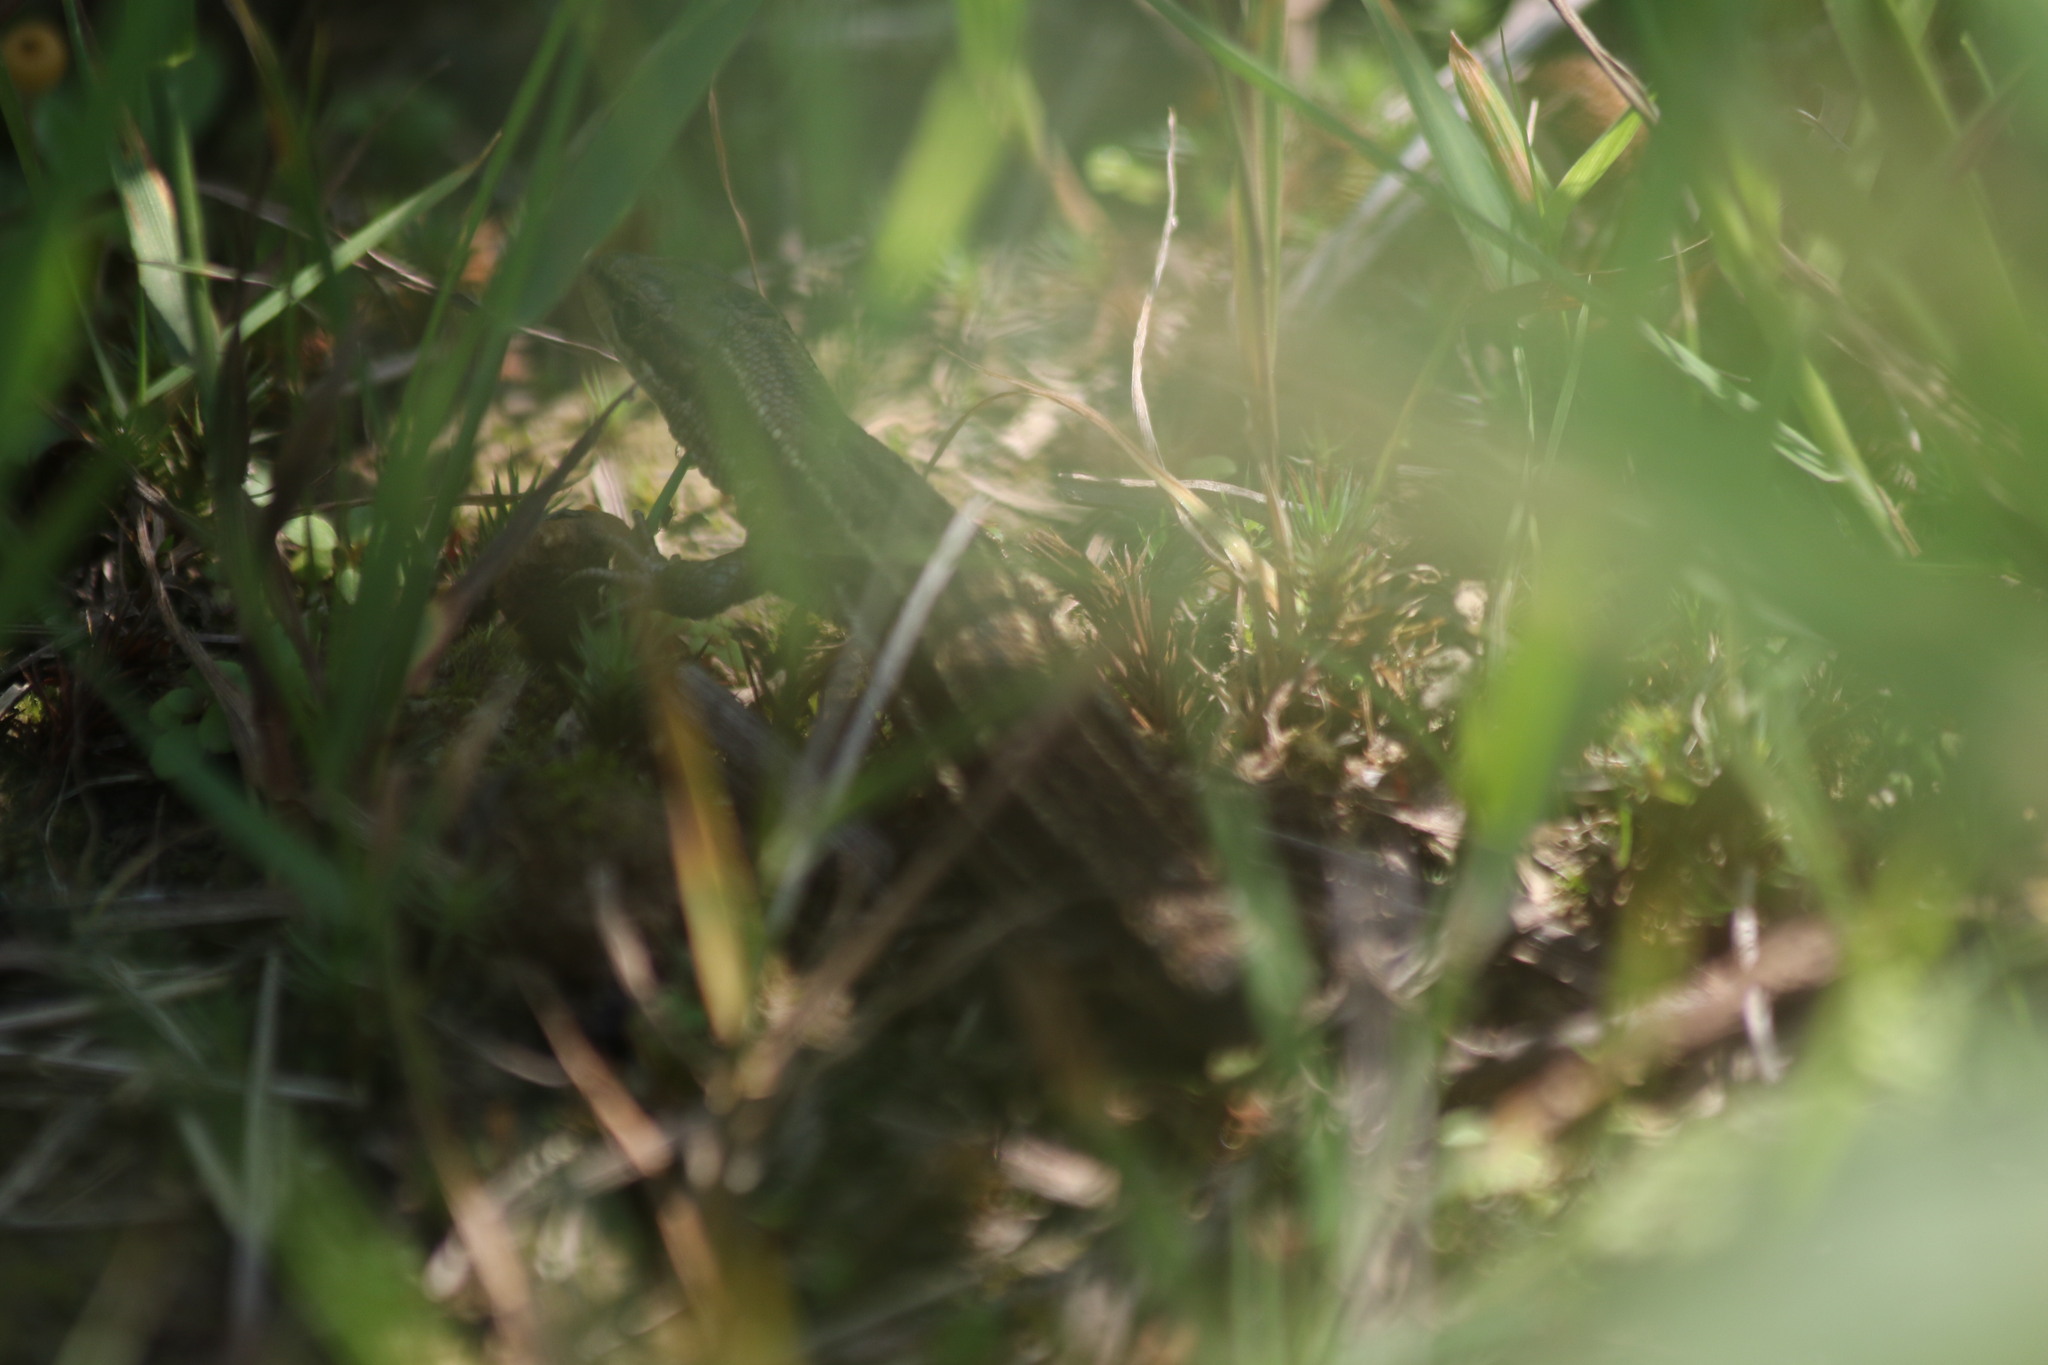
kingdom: Animalia
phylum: Chordata
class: Squamata
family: Lacertidae
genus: Zootoca
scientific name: Zootoca vivipara
